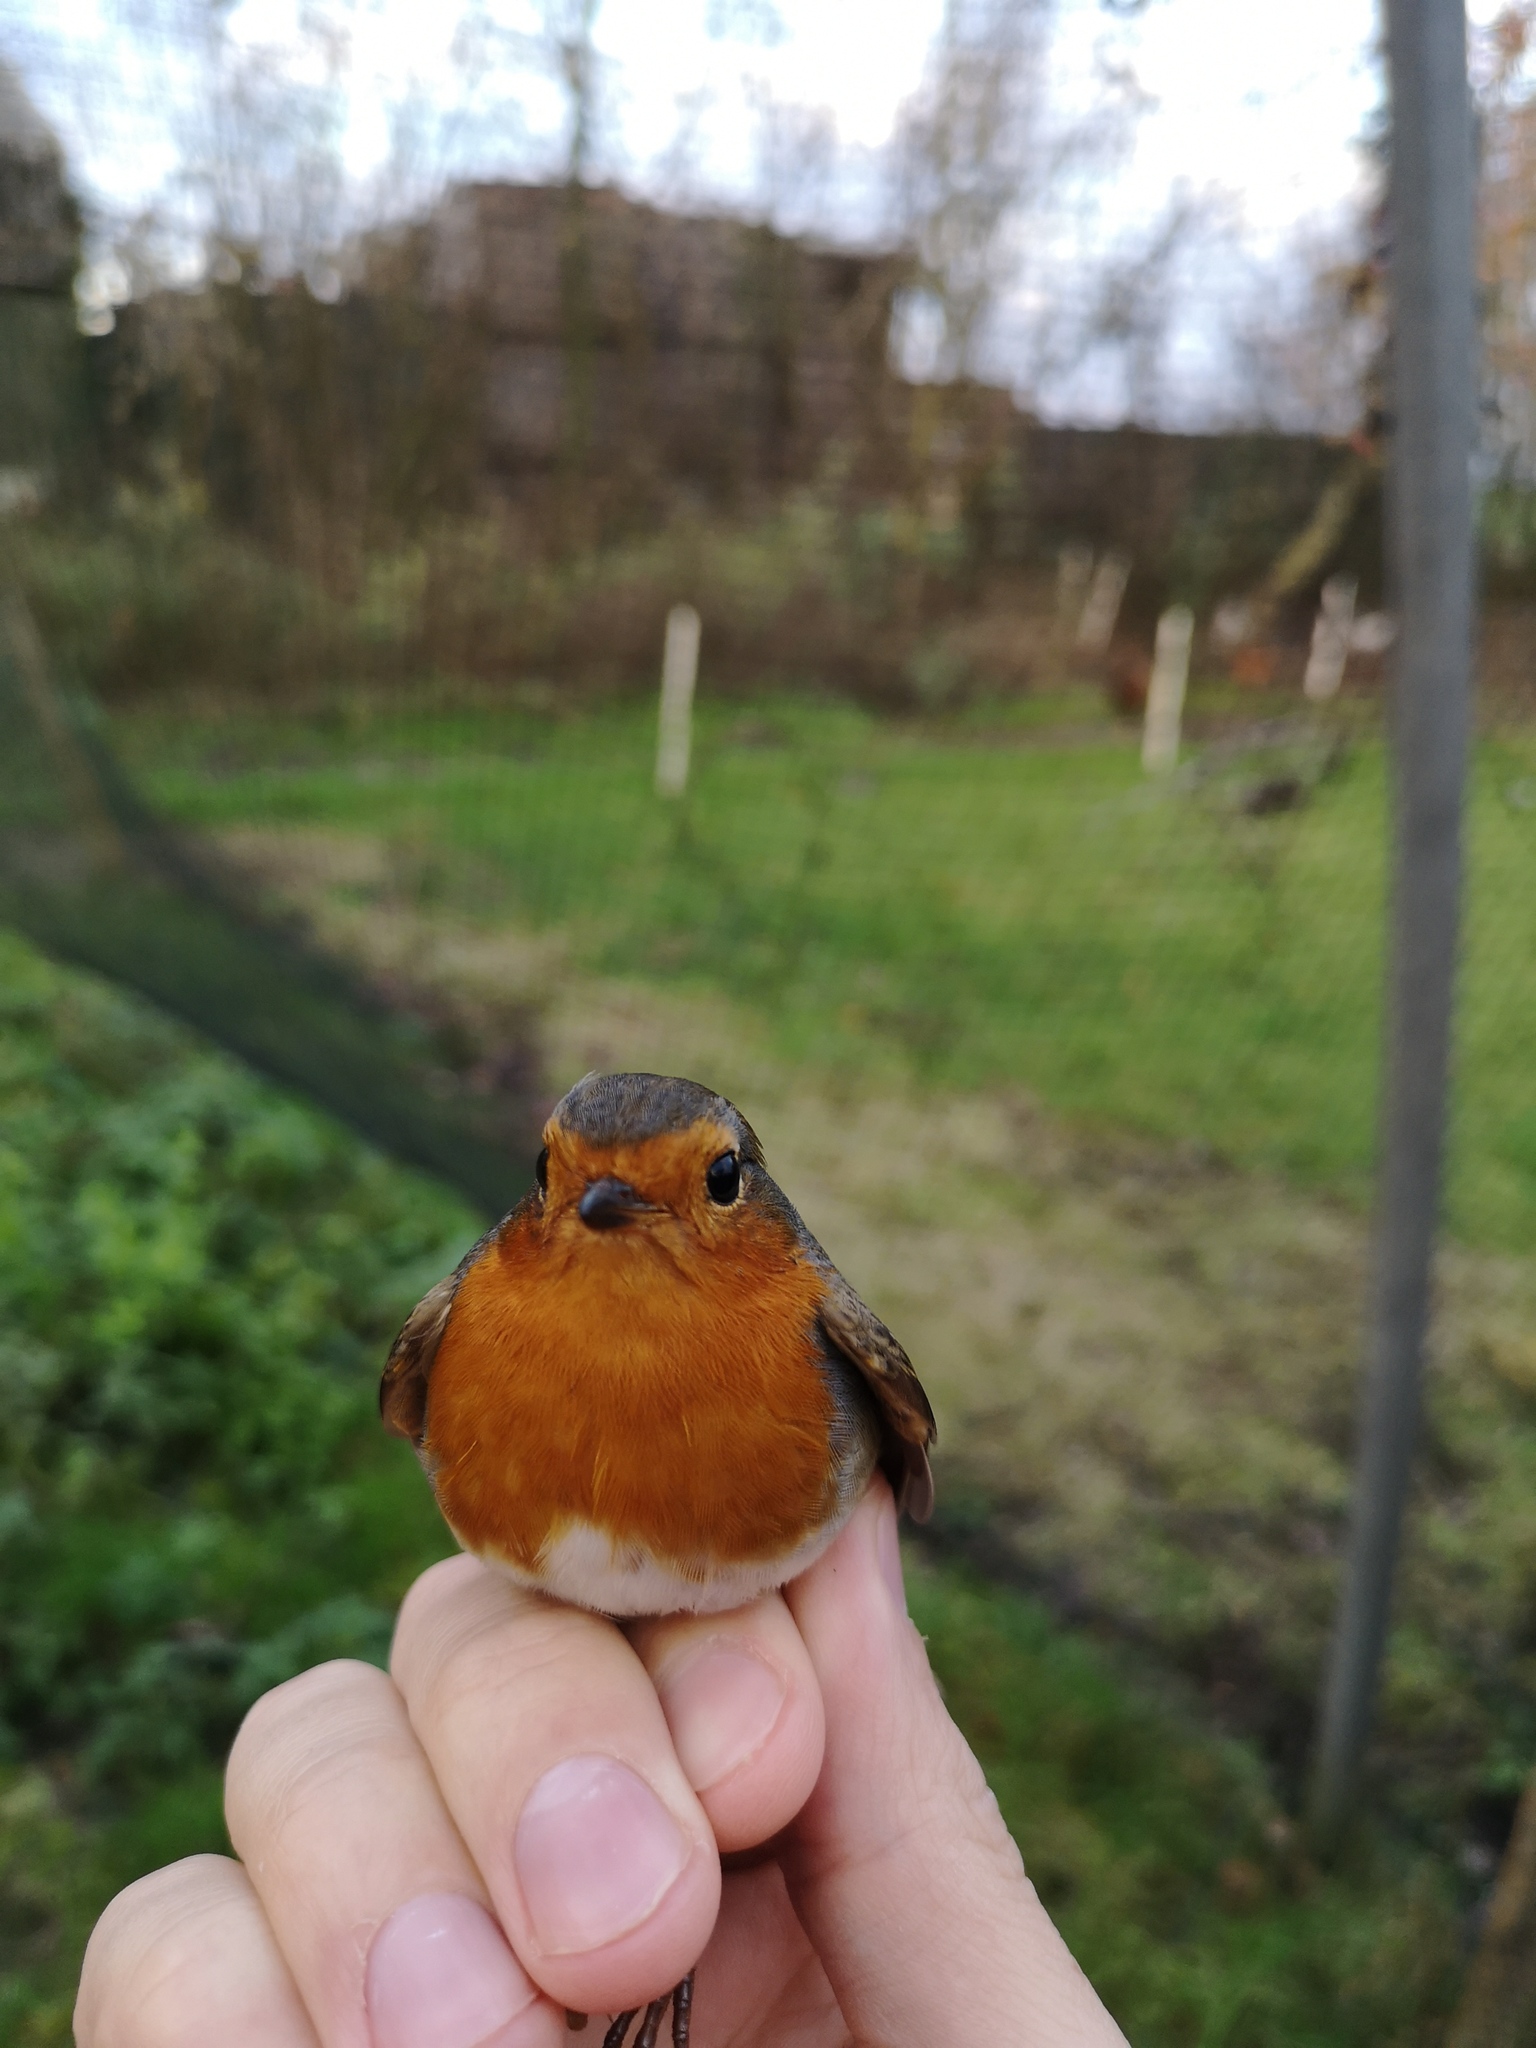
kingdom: Animalia
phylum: Chordata
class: Aves
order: Passeriformes
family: Muscicapidae
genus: Erithacus
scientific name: Erithacus rubecula
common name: European robin
